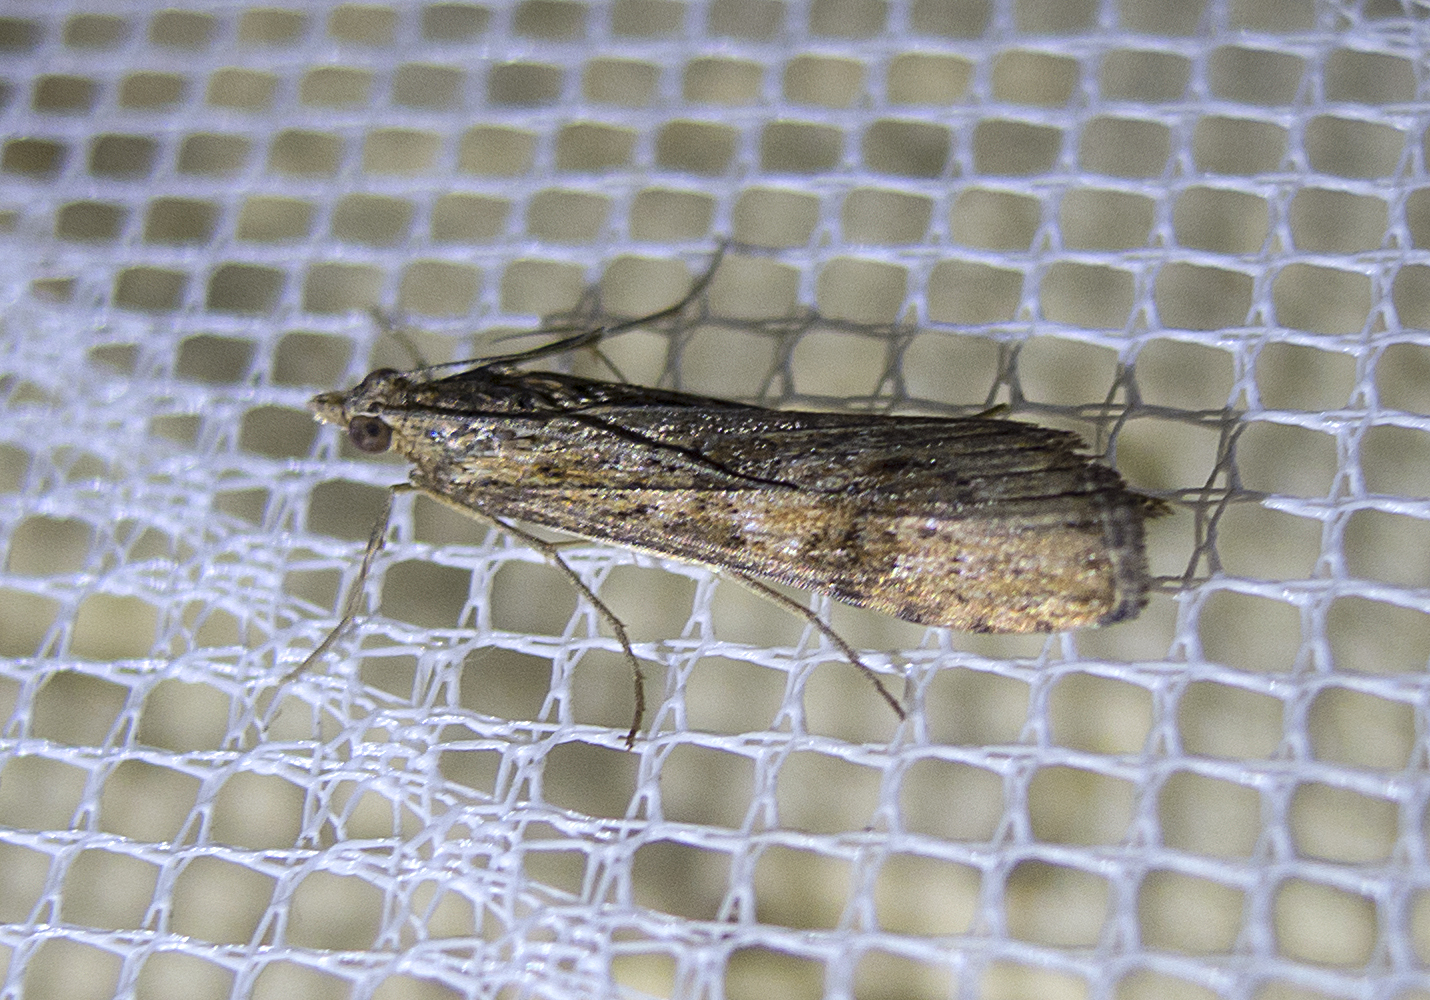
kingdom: Animalia
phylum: Arthropoda
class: Insecta
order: Lepidoptera
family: Crambidae
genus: Nomophila
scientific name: Nomophila noctuella
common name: Rush veneer
